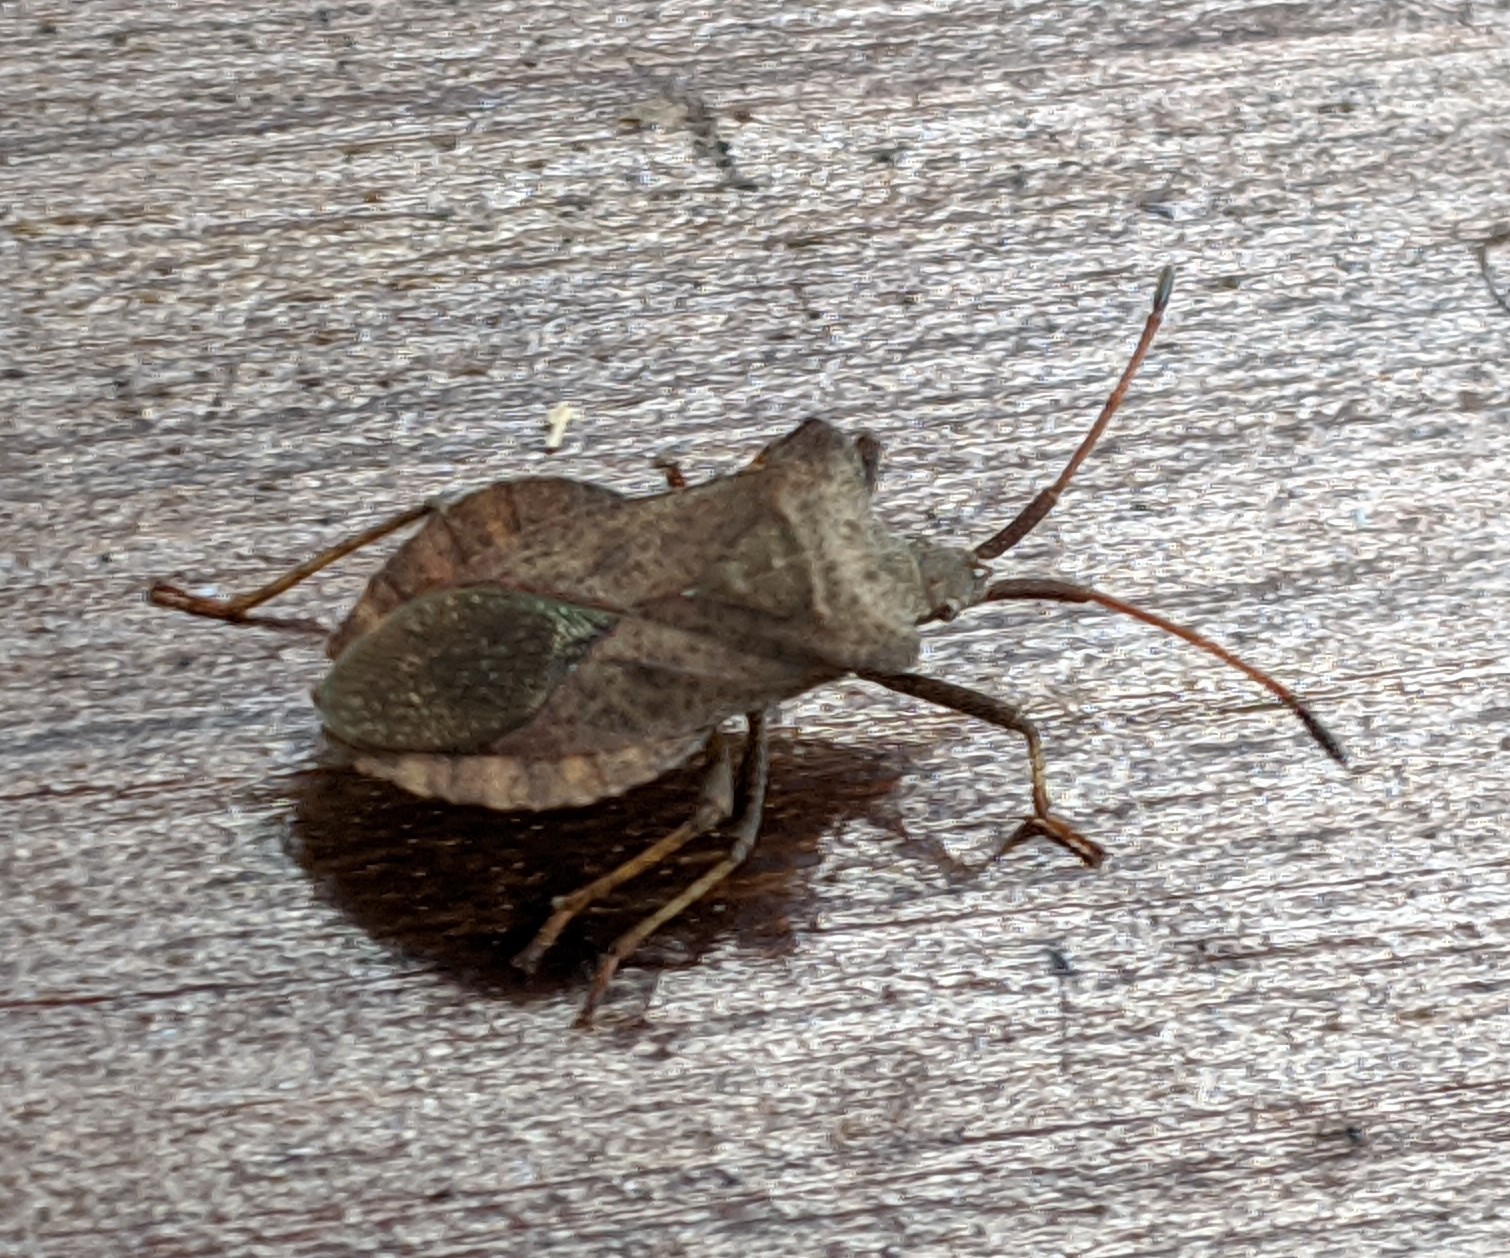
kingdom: Animalia
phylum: Arthropoda
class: Insecta
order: Hemiptera
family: Coreidae
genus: Coreus
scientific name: Coreus marginatus
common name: Dock bug
